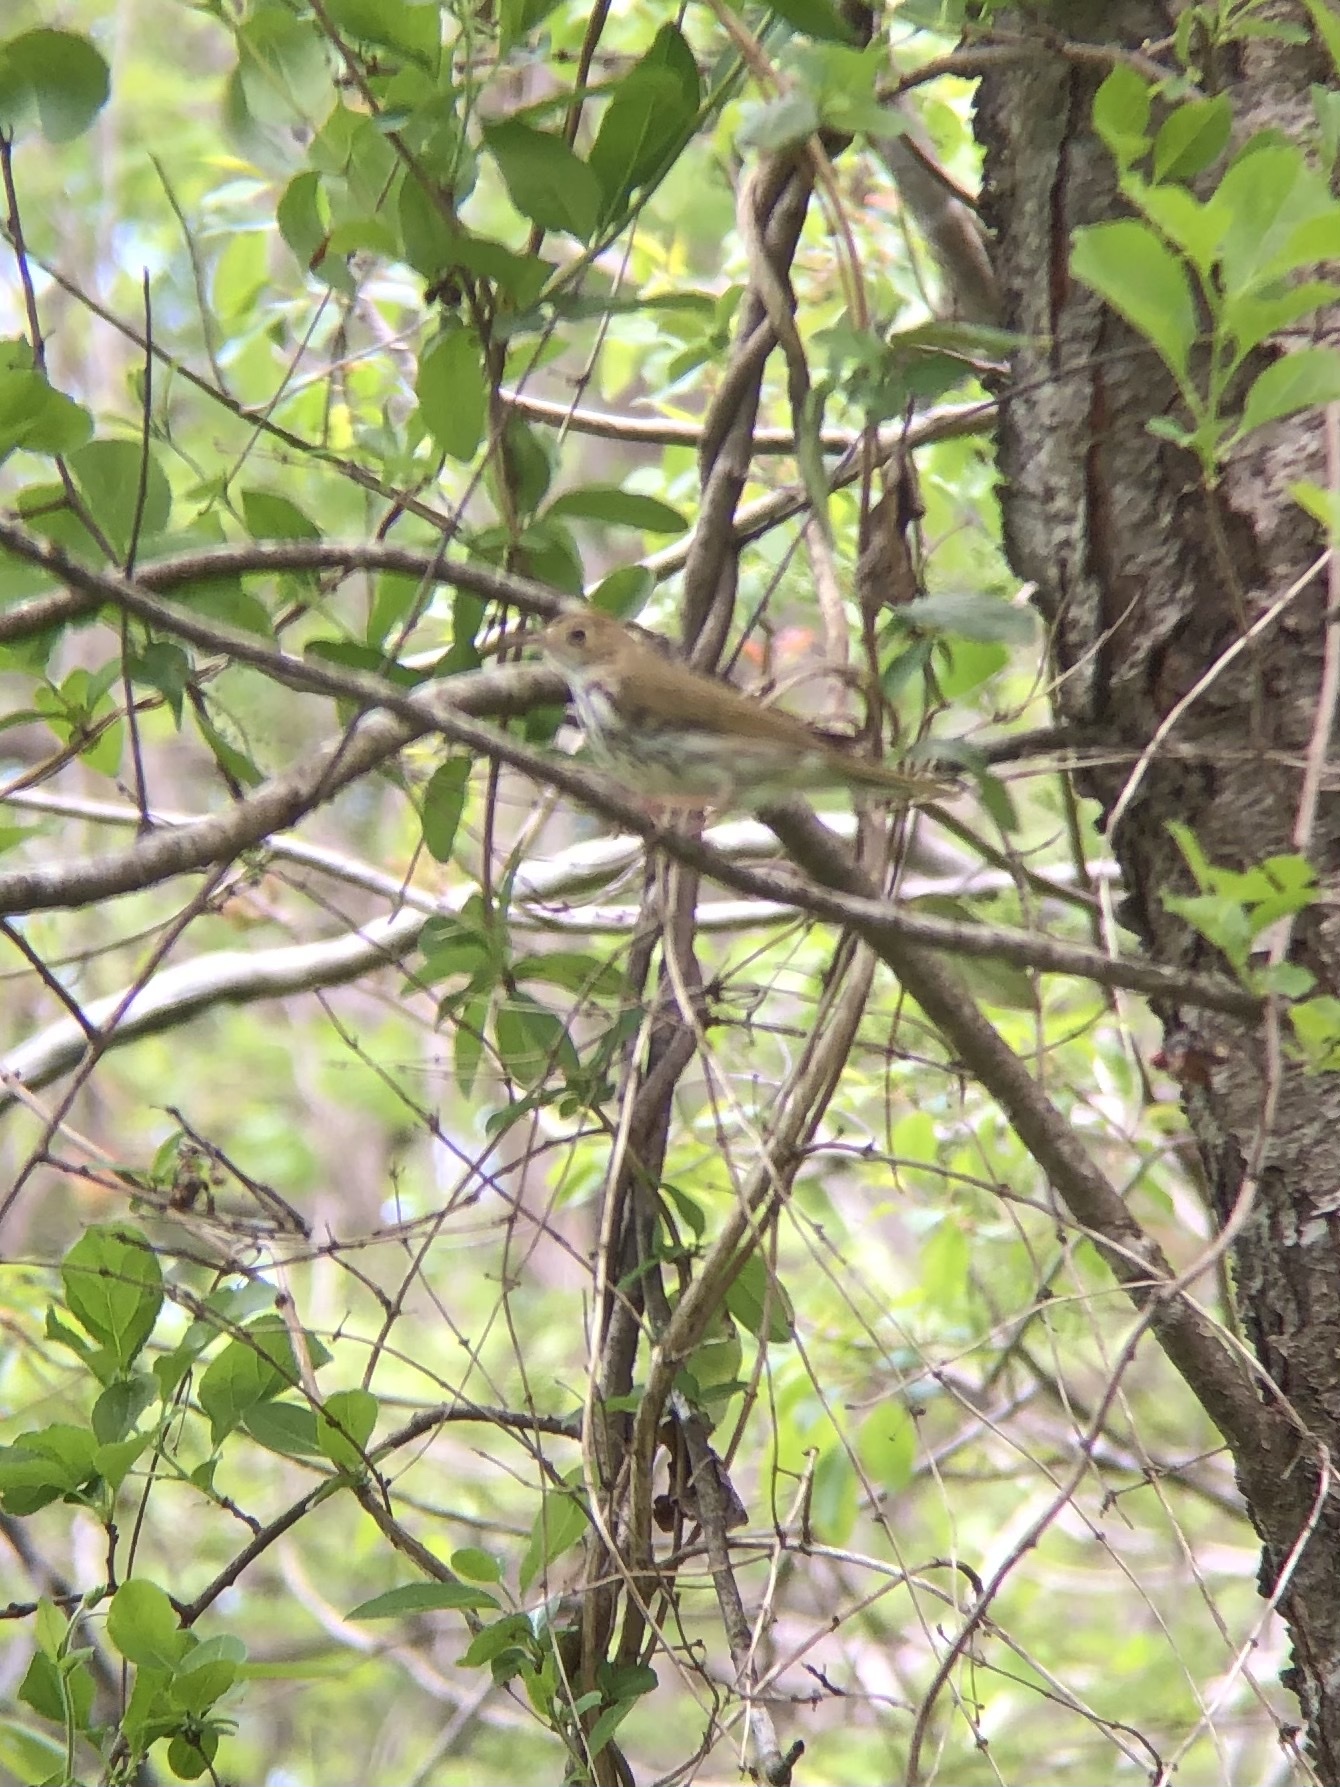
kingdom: Animalia
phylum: Chordata
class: Aves
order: Passeriformes
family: Parulidae
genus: Seiurus
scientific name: Seiurus aurocapilla
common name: Ovenbird
